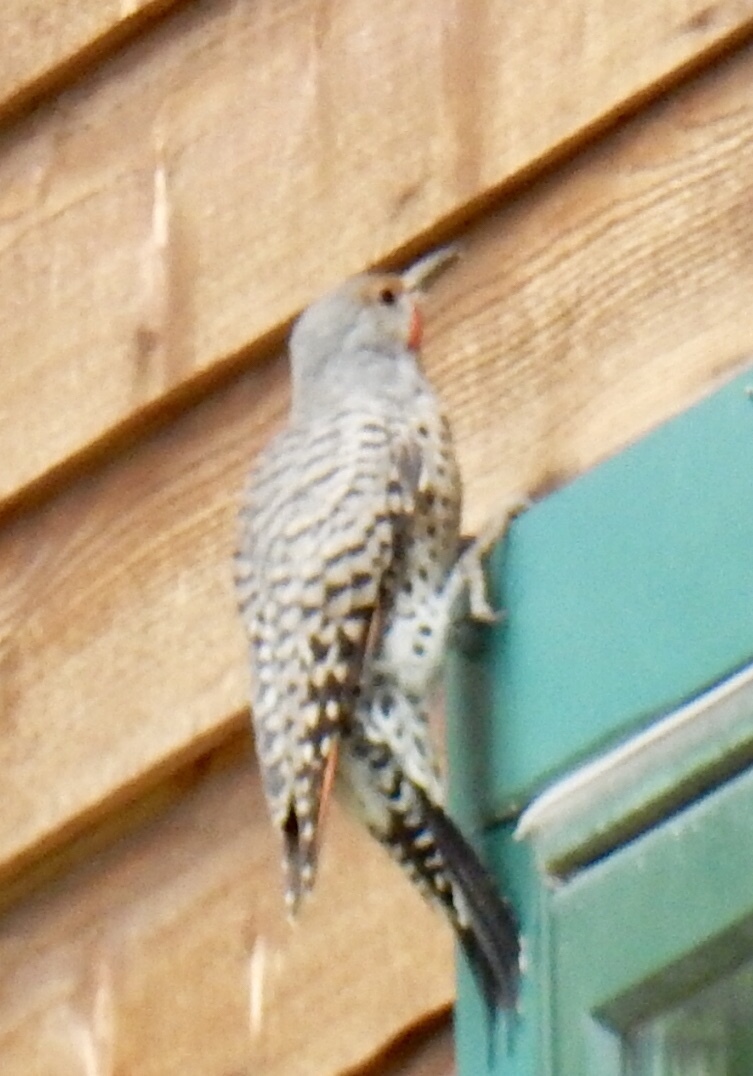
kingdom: Animalia
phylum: Chordata
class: Aves
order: Piciformes
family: Picidae
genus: Colaptes
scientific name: Colaptes auratus
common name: Northern flicker
